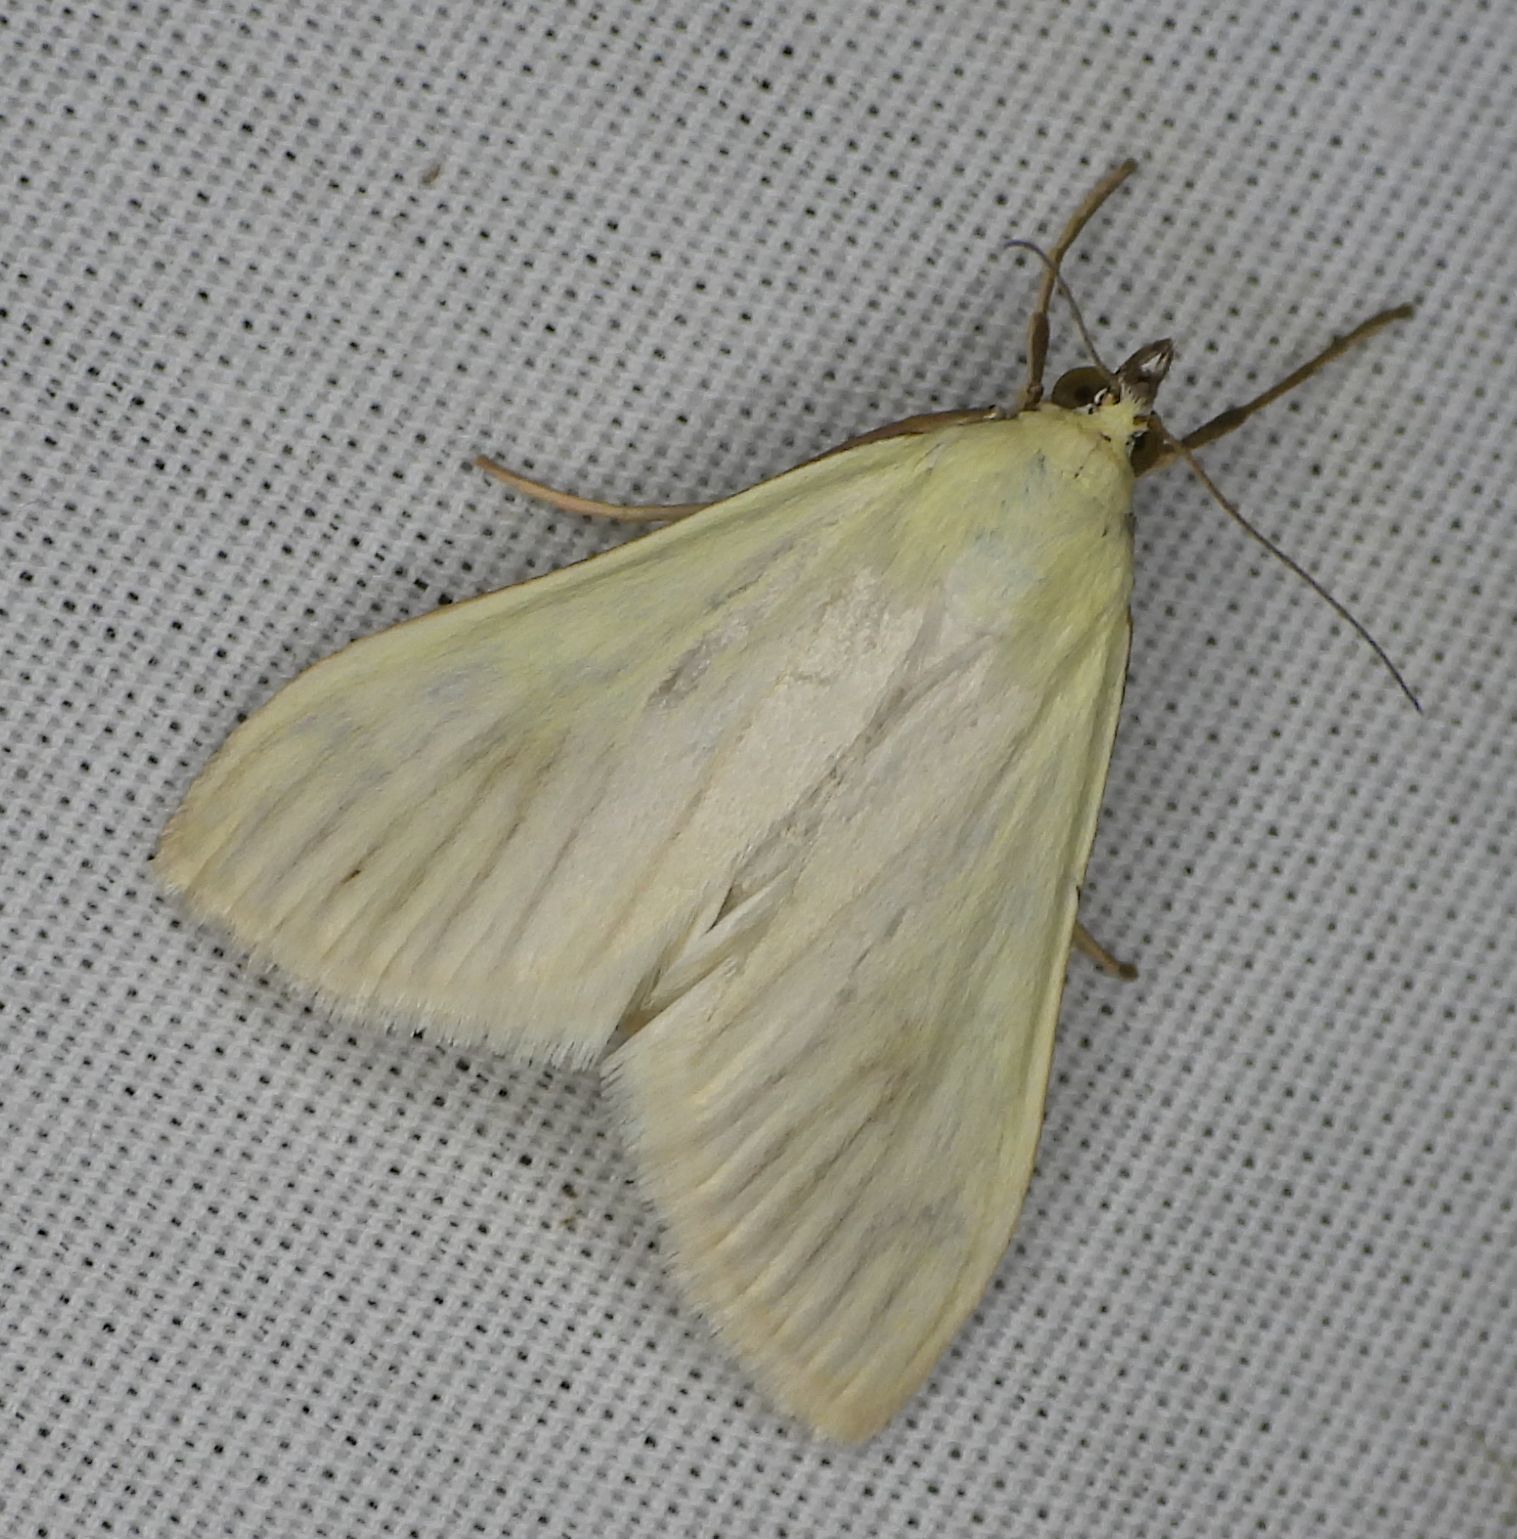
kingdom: Animalia
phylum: Arthropoda
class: Insecta
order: Lepidoptera
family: Crambidae
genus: Sitochroa
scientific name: Sitochroa palealis
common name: Greenish-yellow sitochroa moth
